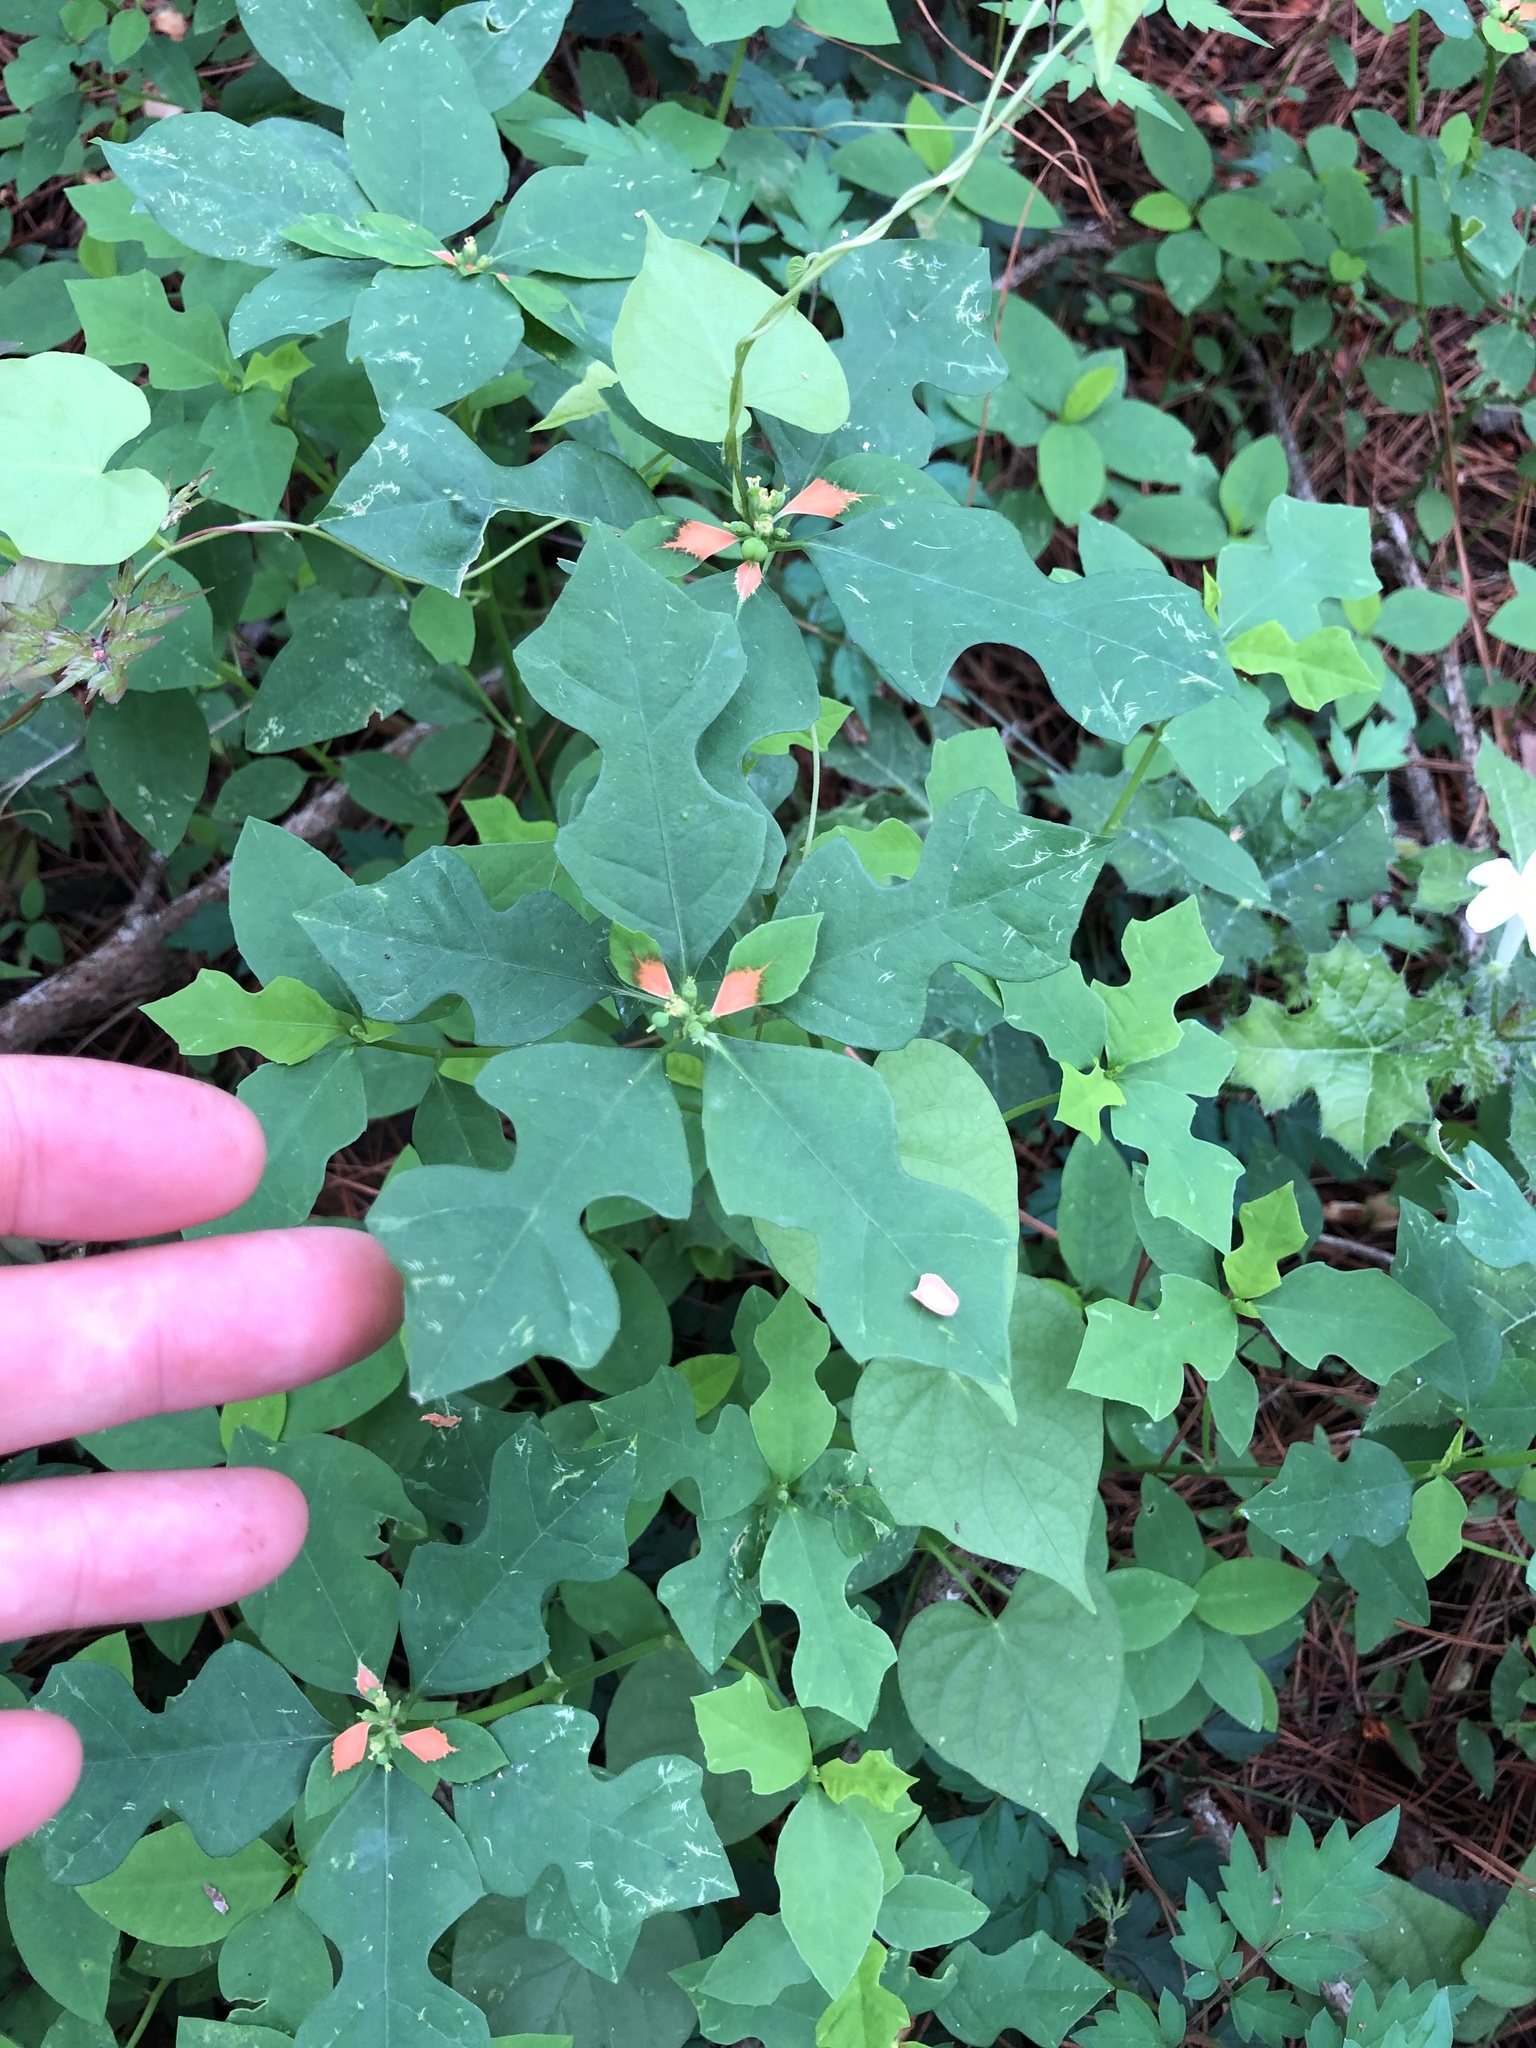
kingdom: Plantae
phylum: Tracheophyta
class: Magnoliopsida
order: Malpighiales
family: Euphorbiaceae
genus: Euphorbia
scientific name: Euphorbia heterophylla
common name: Mexican fireplant
